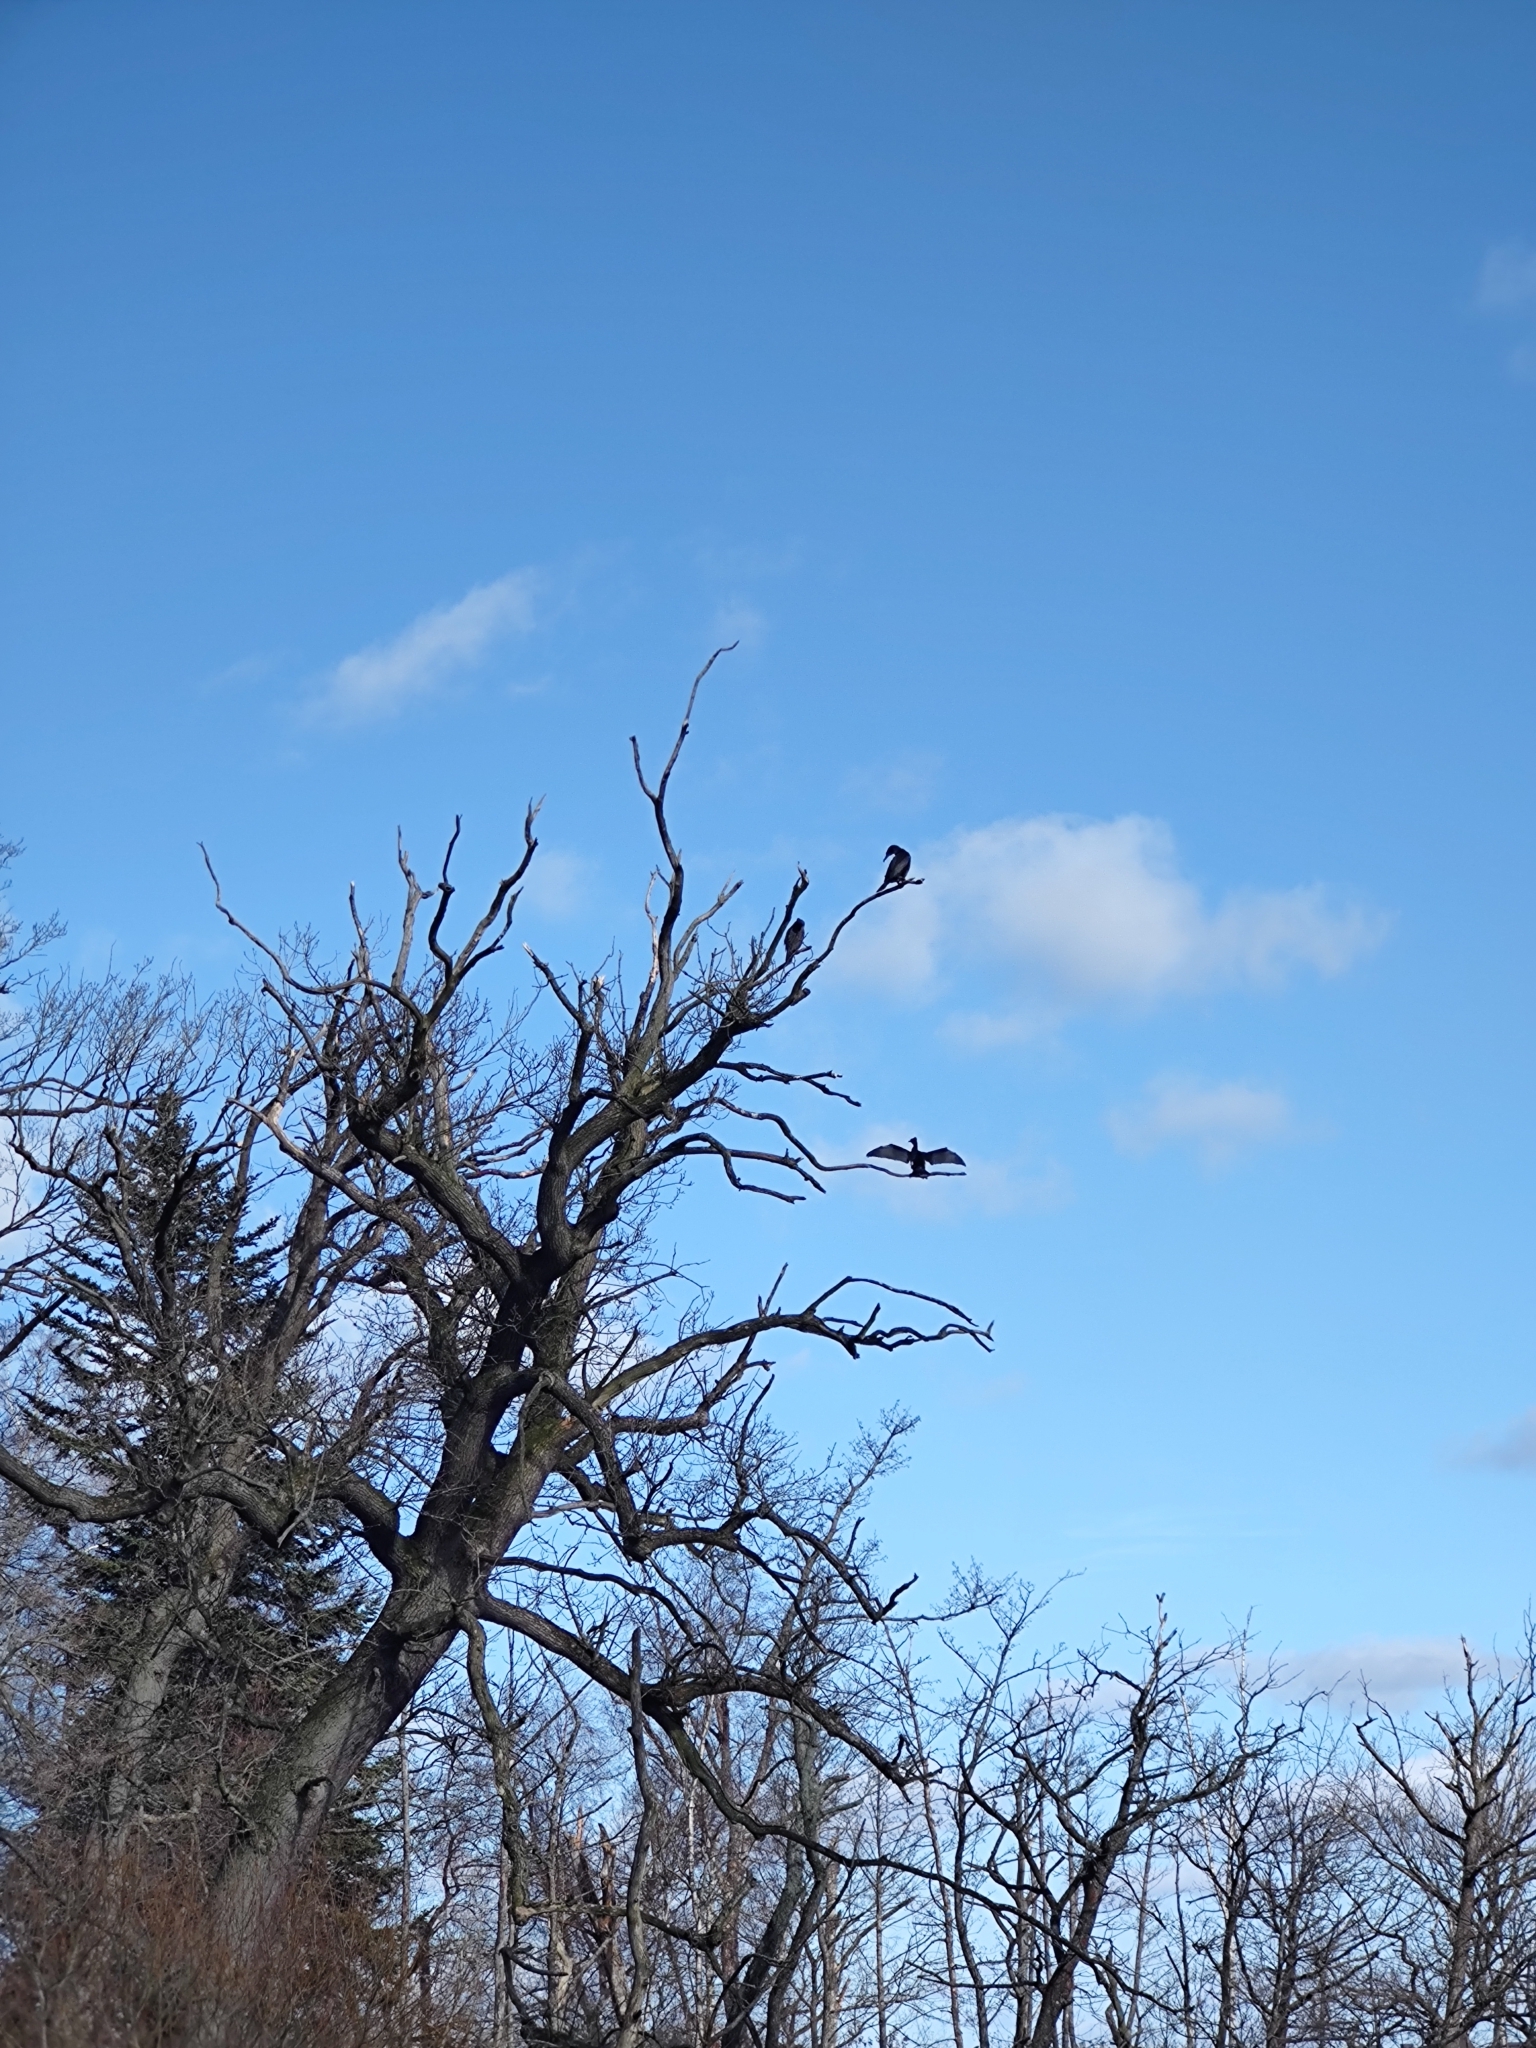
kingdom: Animalia
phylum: Chordata
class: Aves
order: Suliformes
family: Phalacrocoracidae
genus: Phalacrocorax
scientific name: Phalacrocorax carbo
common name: Great cormorant
